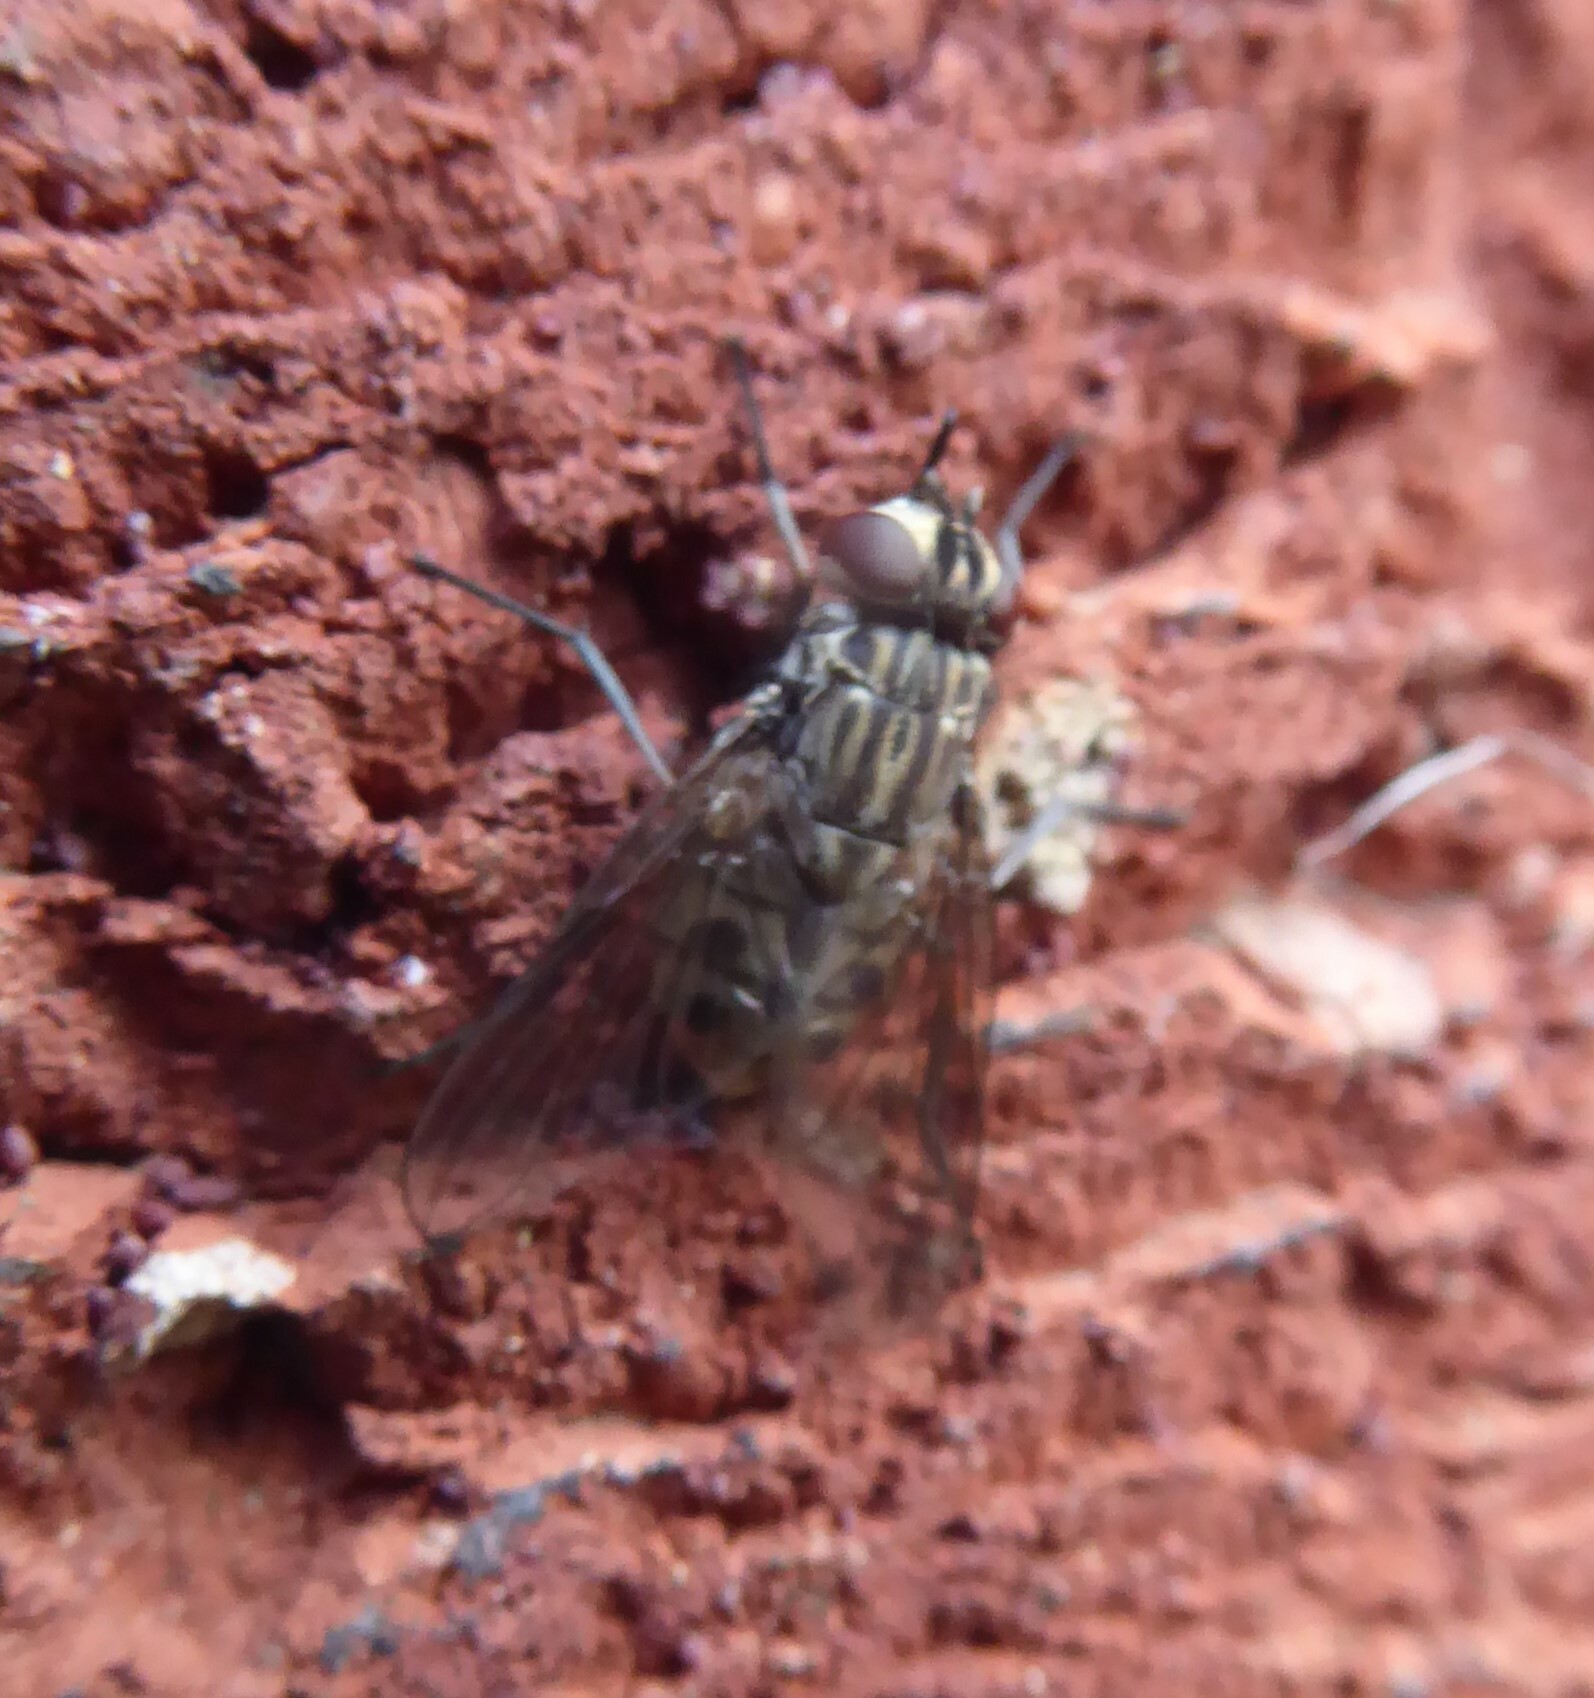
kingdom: Animalia
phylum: Arthropoda
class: Insecta
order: Diptera
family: Muscidae
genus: Stomoxys
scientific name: Stomoxys calcitrans
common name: Stable fly
